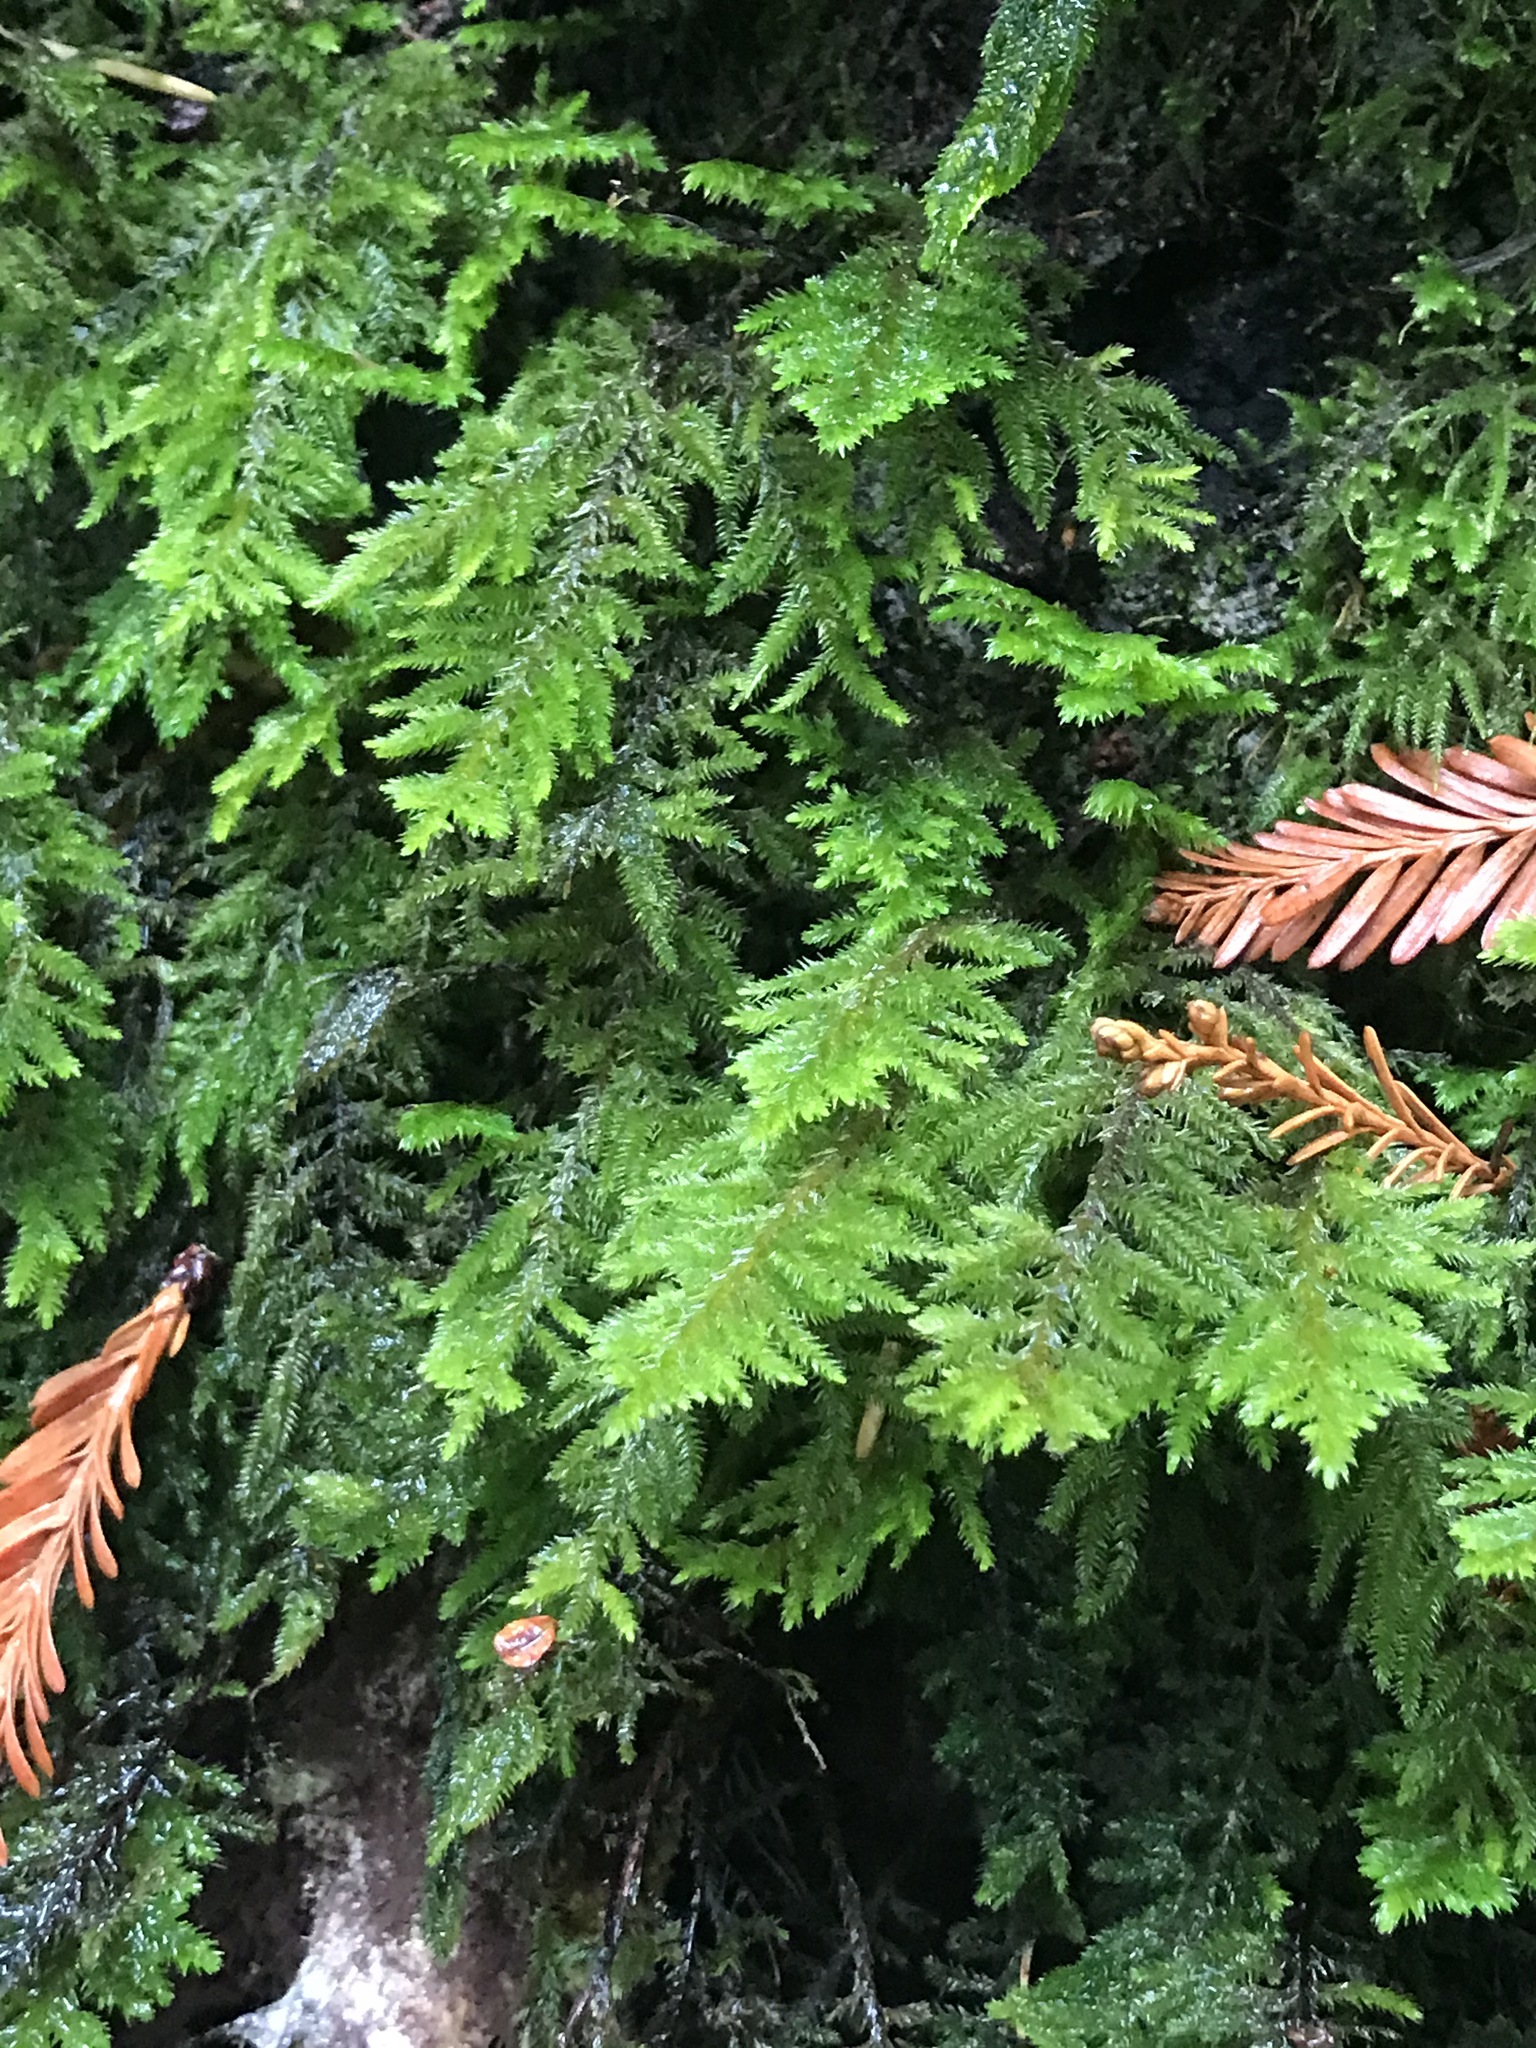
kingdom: Plantae
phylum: Bryophyta
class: Bryopsida
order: Hypnales
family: Cryphaeaceae
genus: Dendroalsia
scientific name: Dendroalsia abietina
